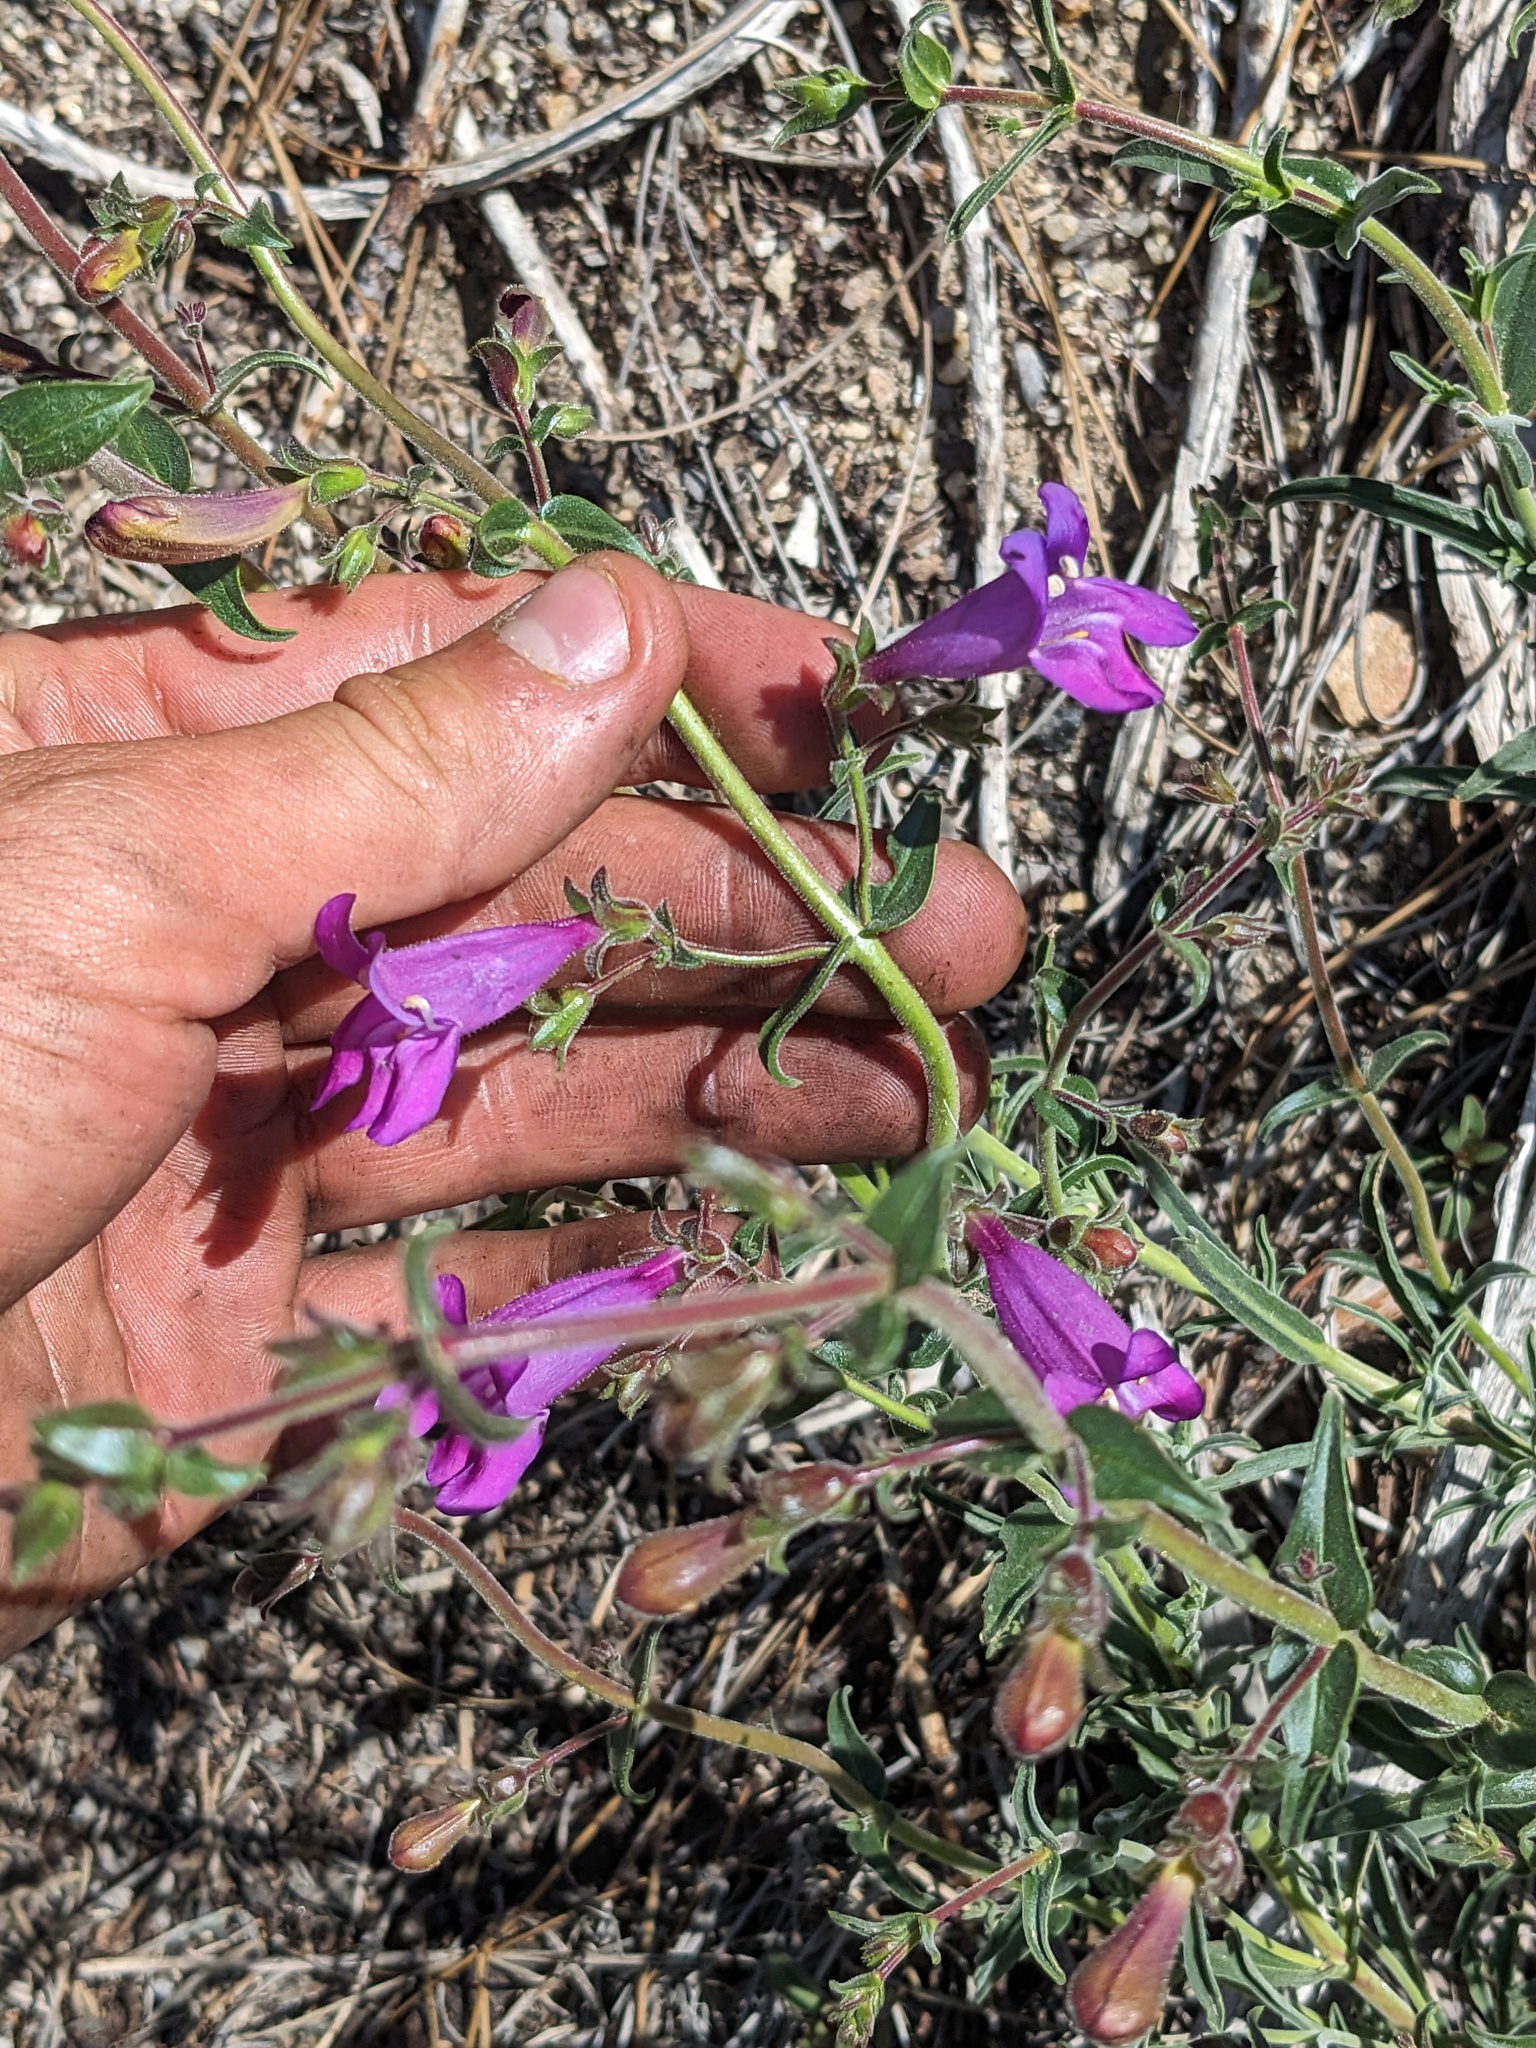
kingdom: Plantae
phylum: Tracheophyta
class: Magnoliopsida
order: Lamiales
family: Plantaginaceae
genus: Penstemon
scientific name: Penstemon laetus
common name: Gay penstemon
